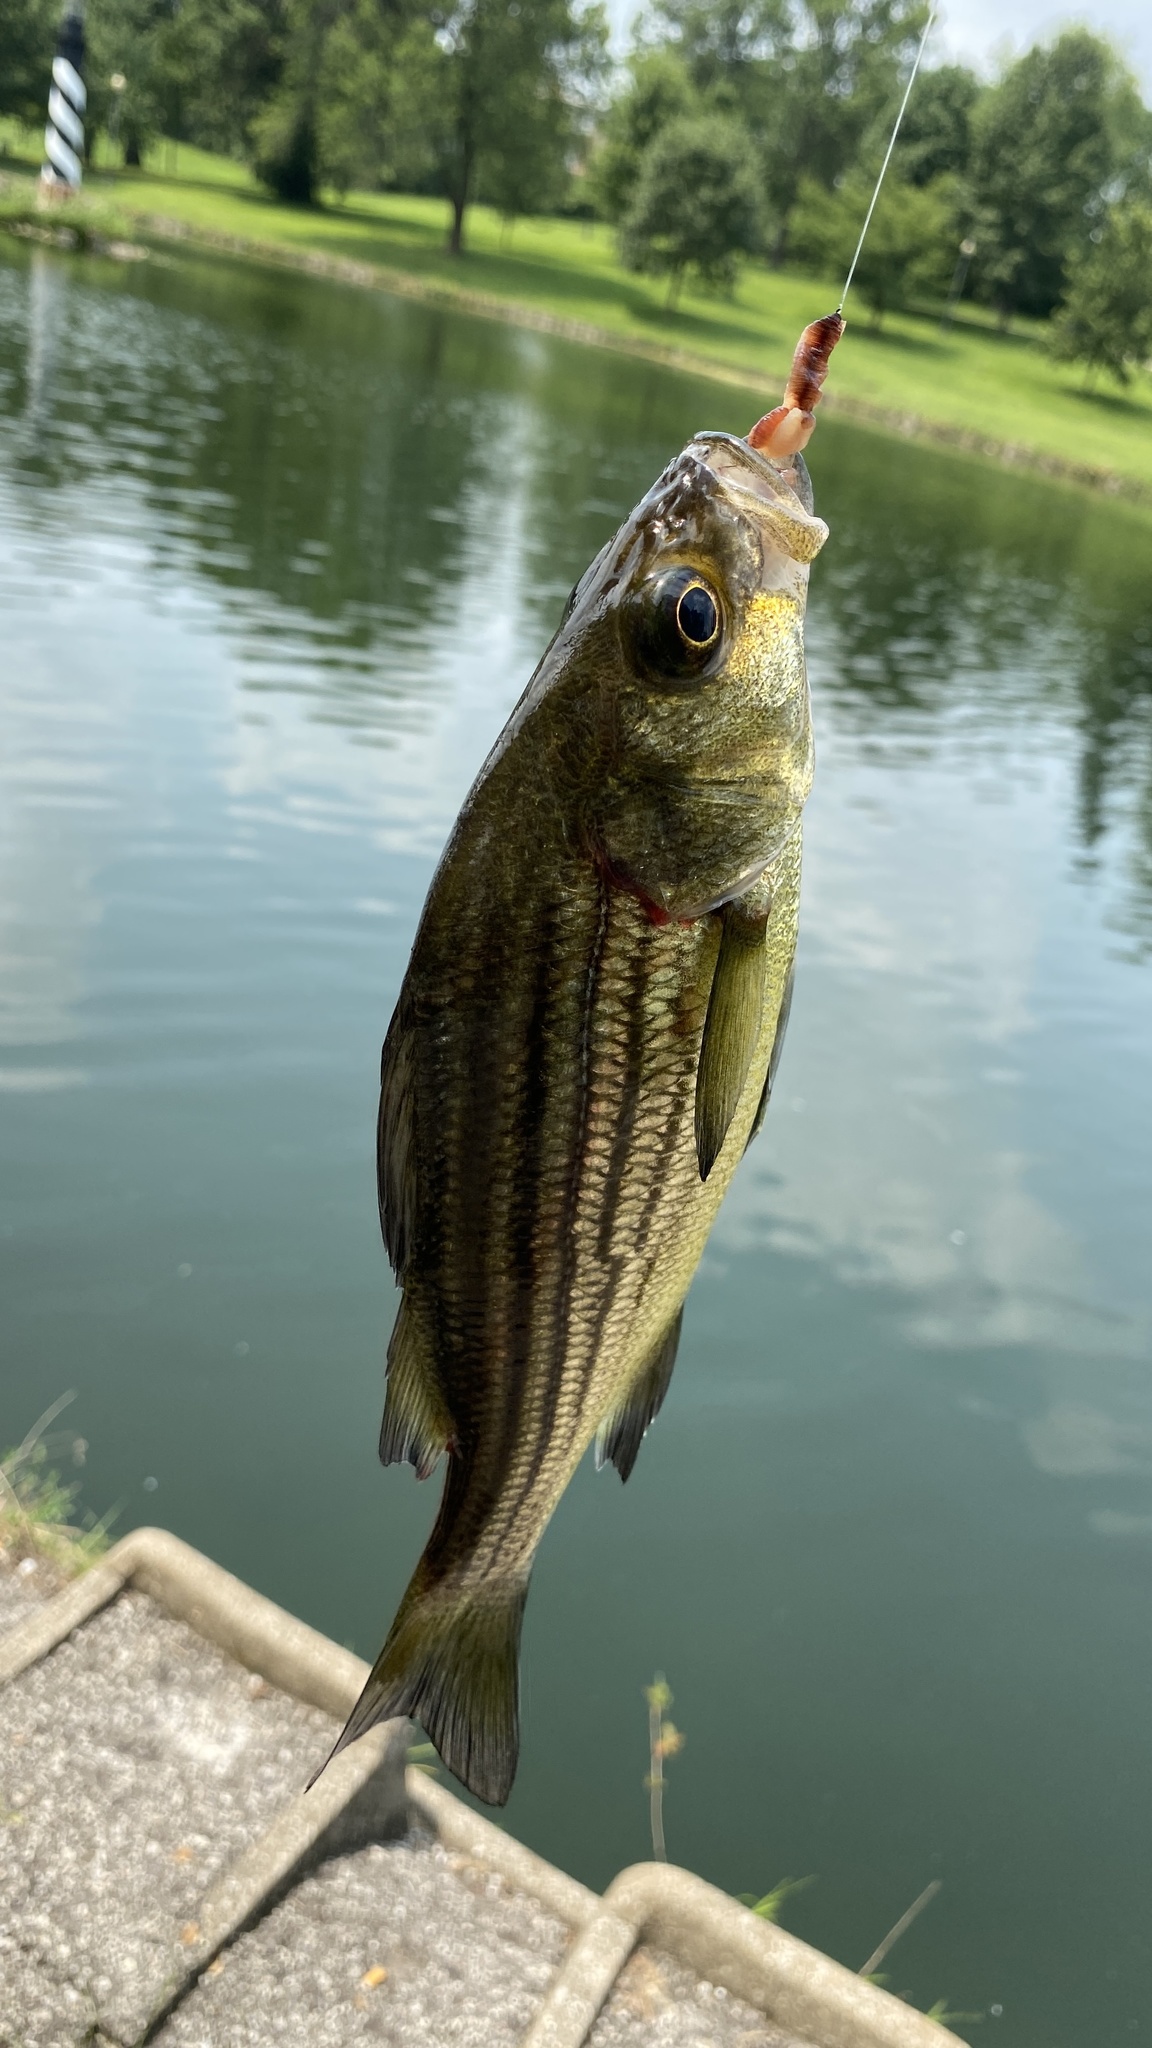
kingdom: Animalia
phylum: Chordata
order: Perciformes
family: Moronidae
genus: Morone
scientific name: Morone mississippiensis
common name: Yellow bass
